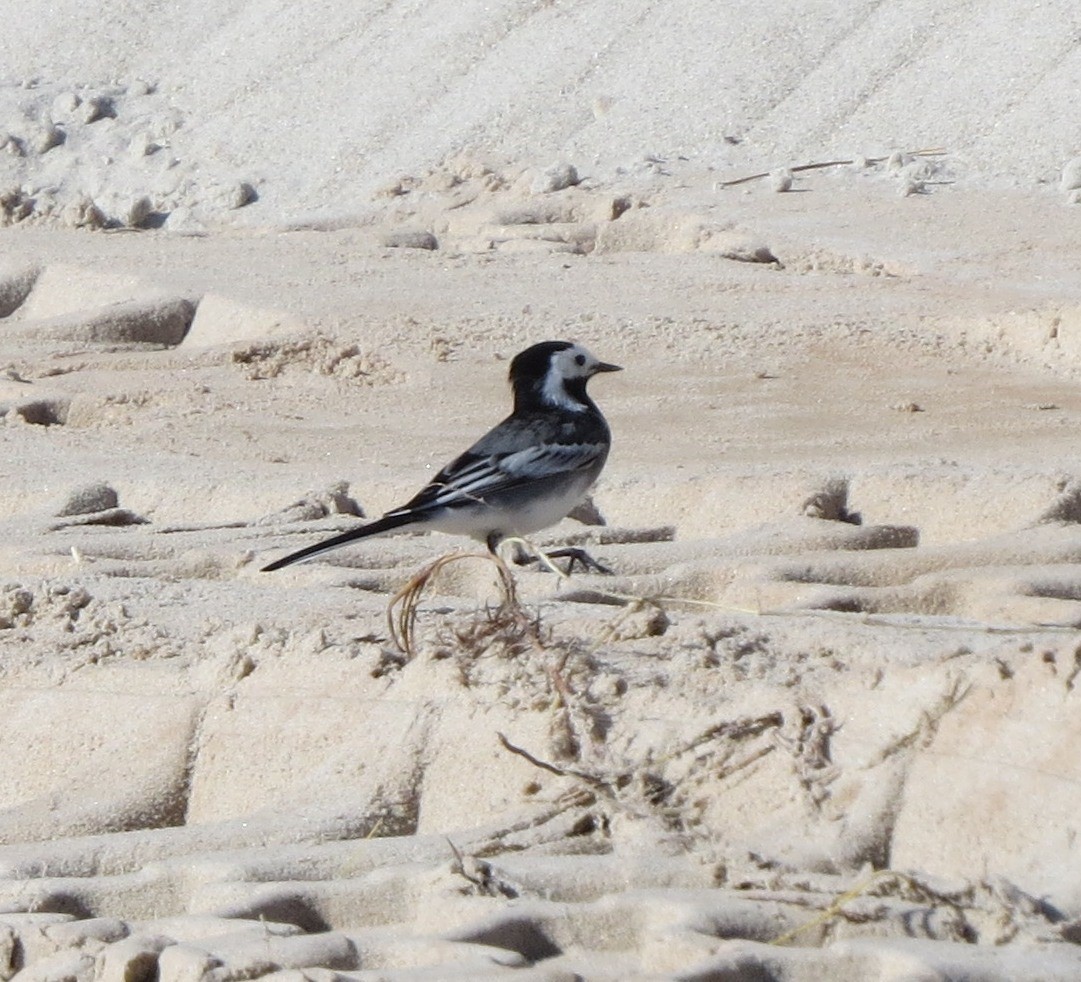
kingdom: Animalia
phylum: Chordata
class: Aves
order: Passeriformes
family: Motacillidae
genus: Motacilla
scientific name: Motacilla alba
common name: White wagtail
